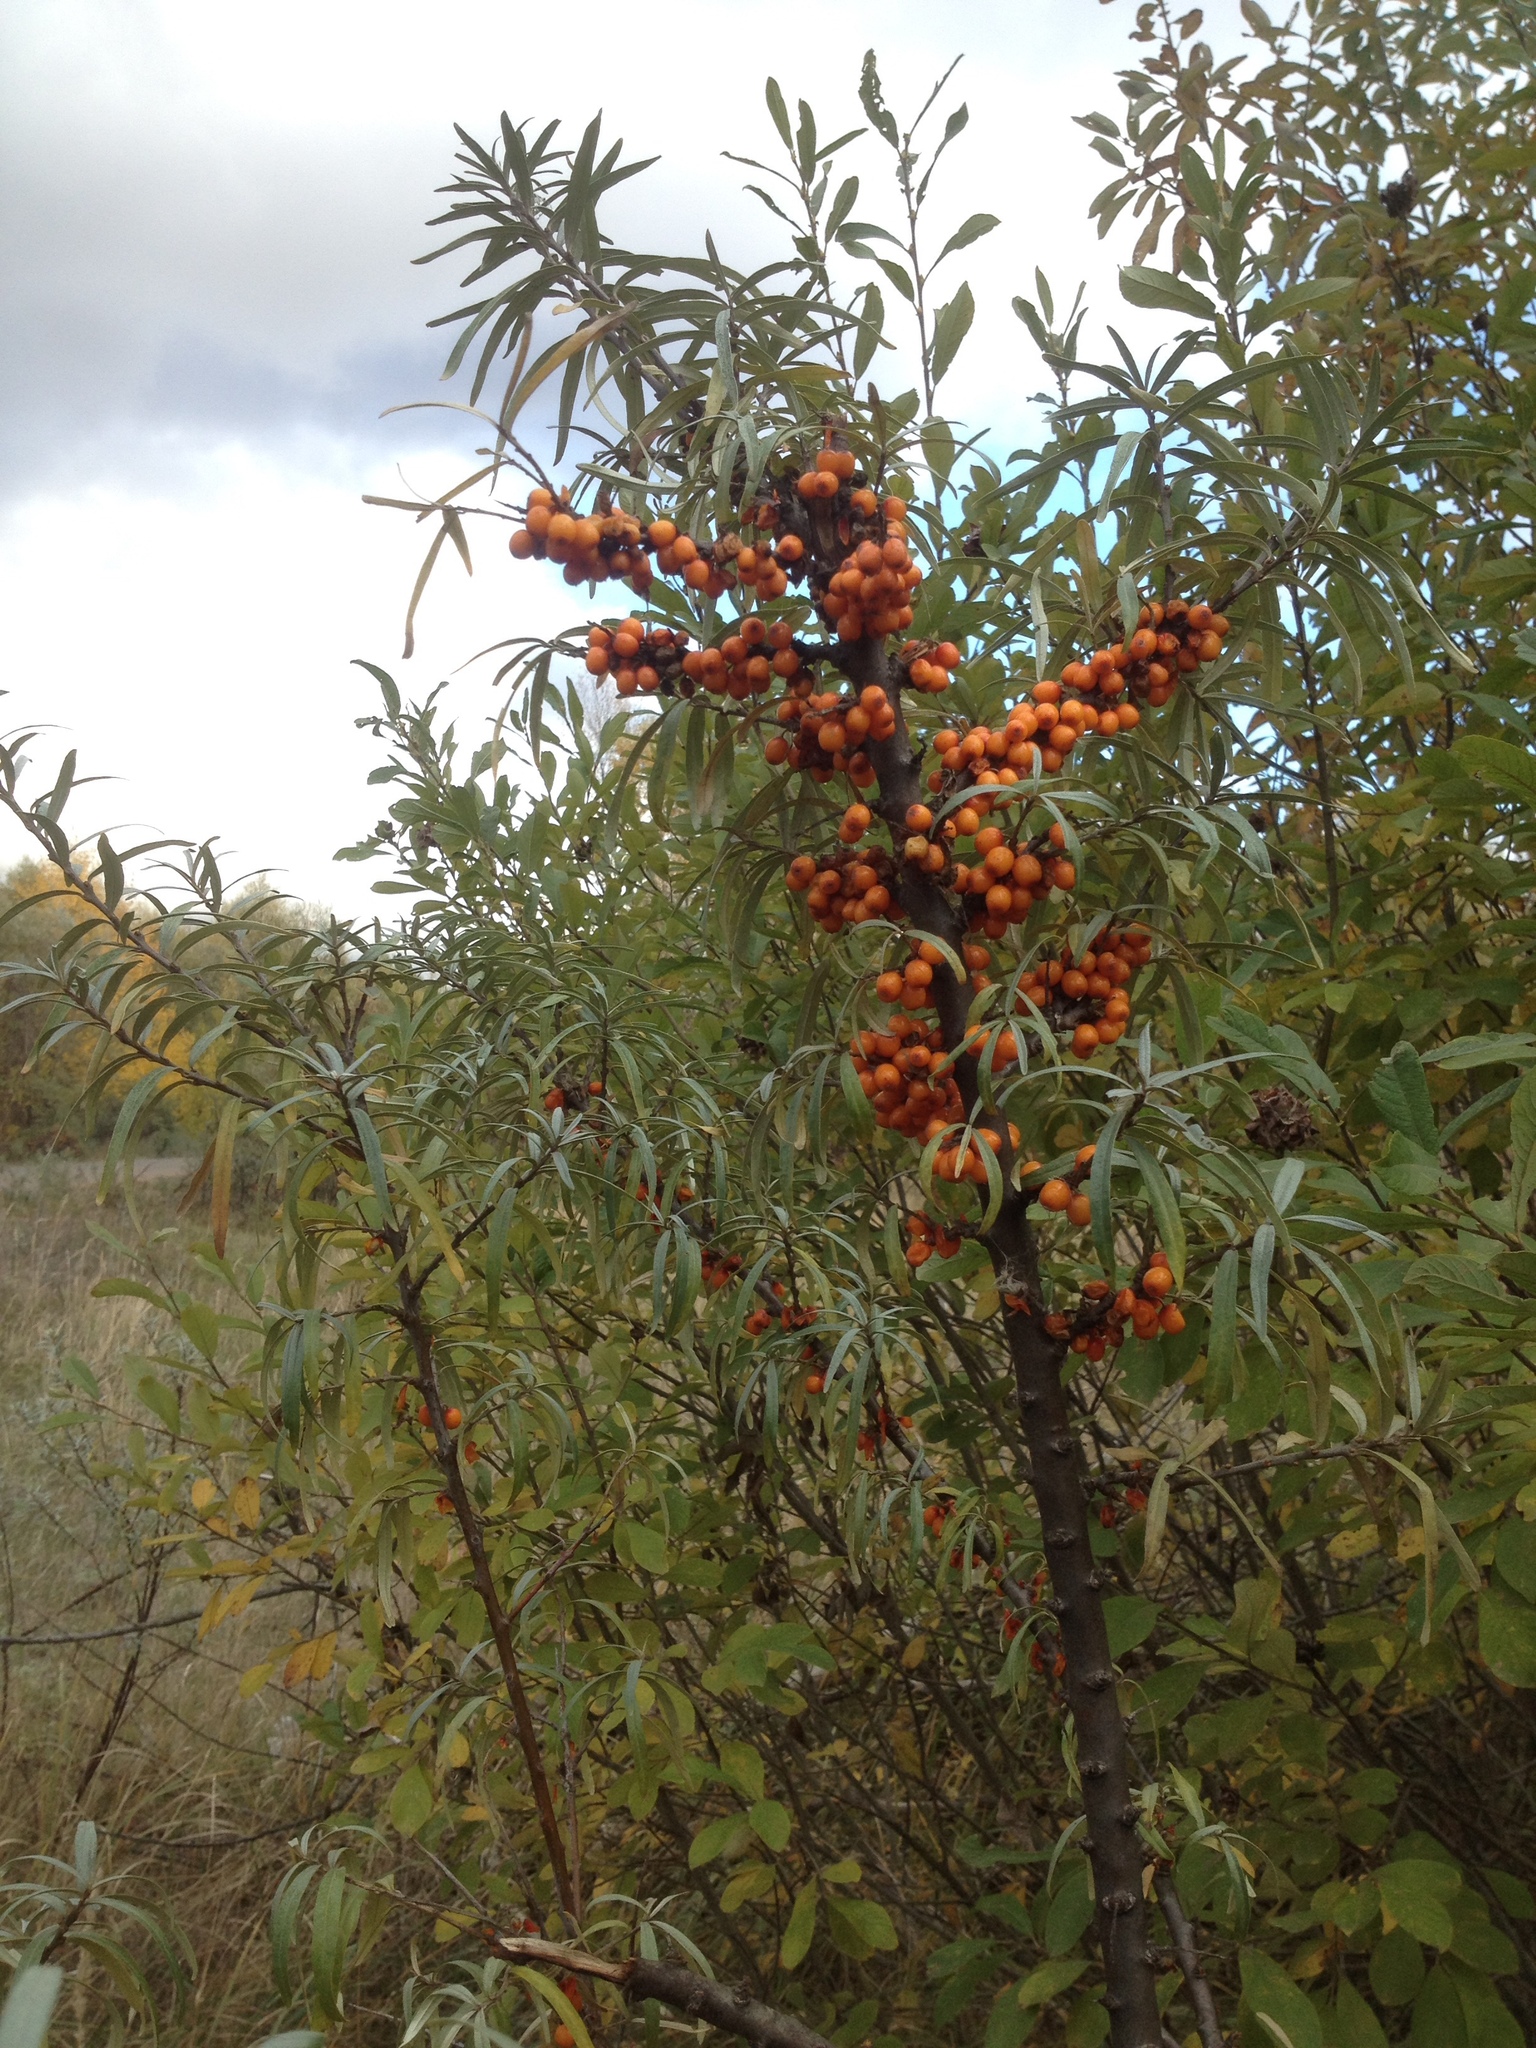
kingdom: Plantae
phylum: Tracheophyta
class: Magnoliopsida
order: Rosales
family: Elaeagnaceae
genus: Hippophae
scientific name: Hippophae rhamnoides
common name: Sea-buckthorn
